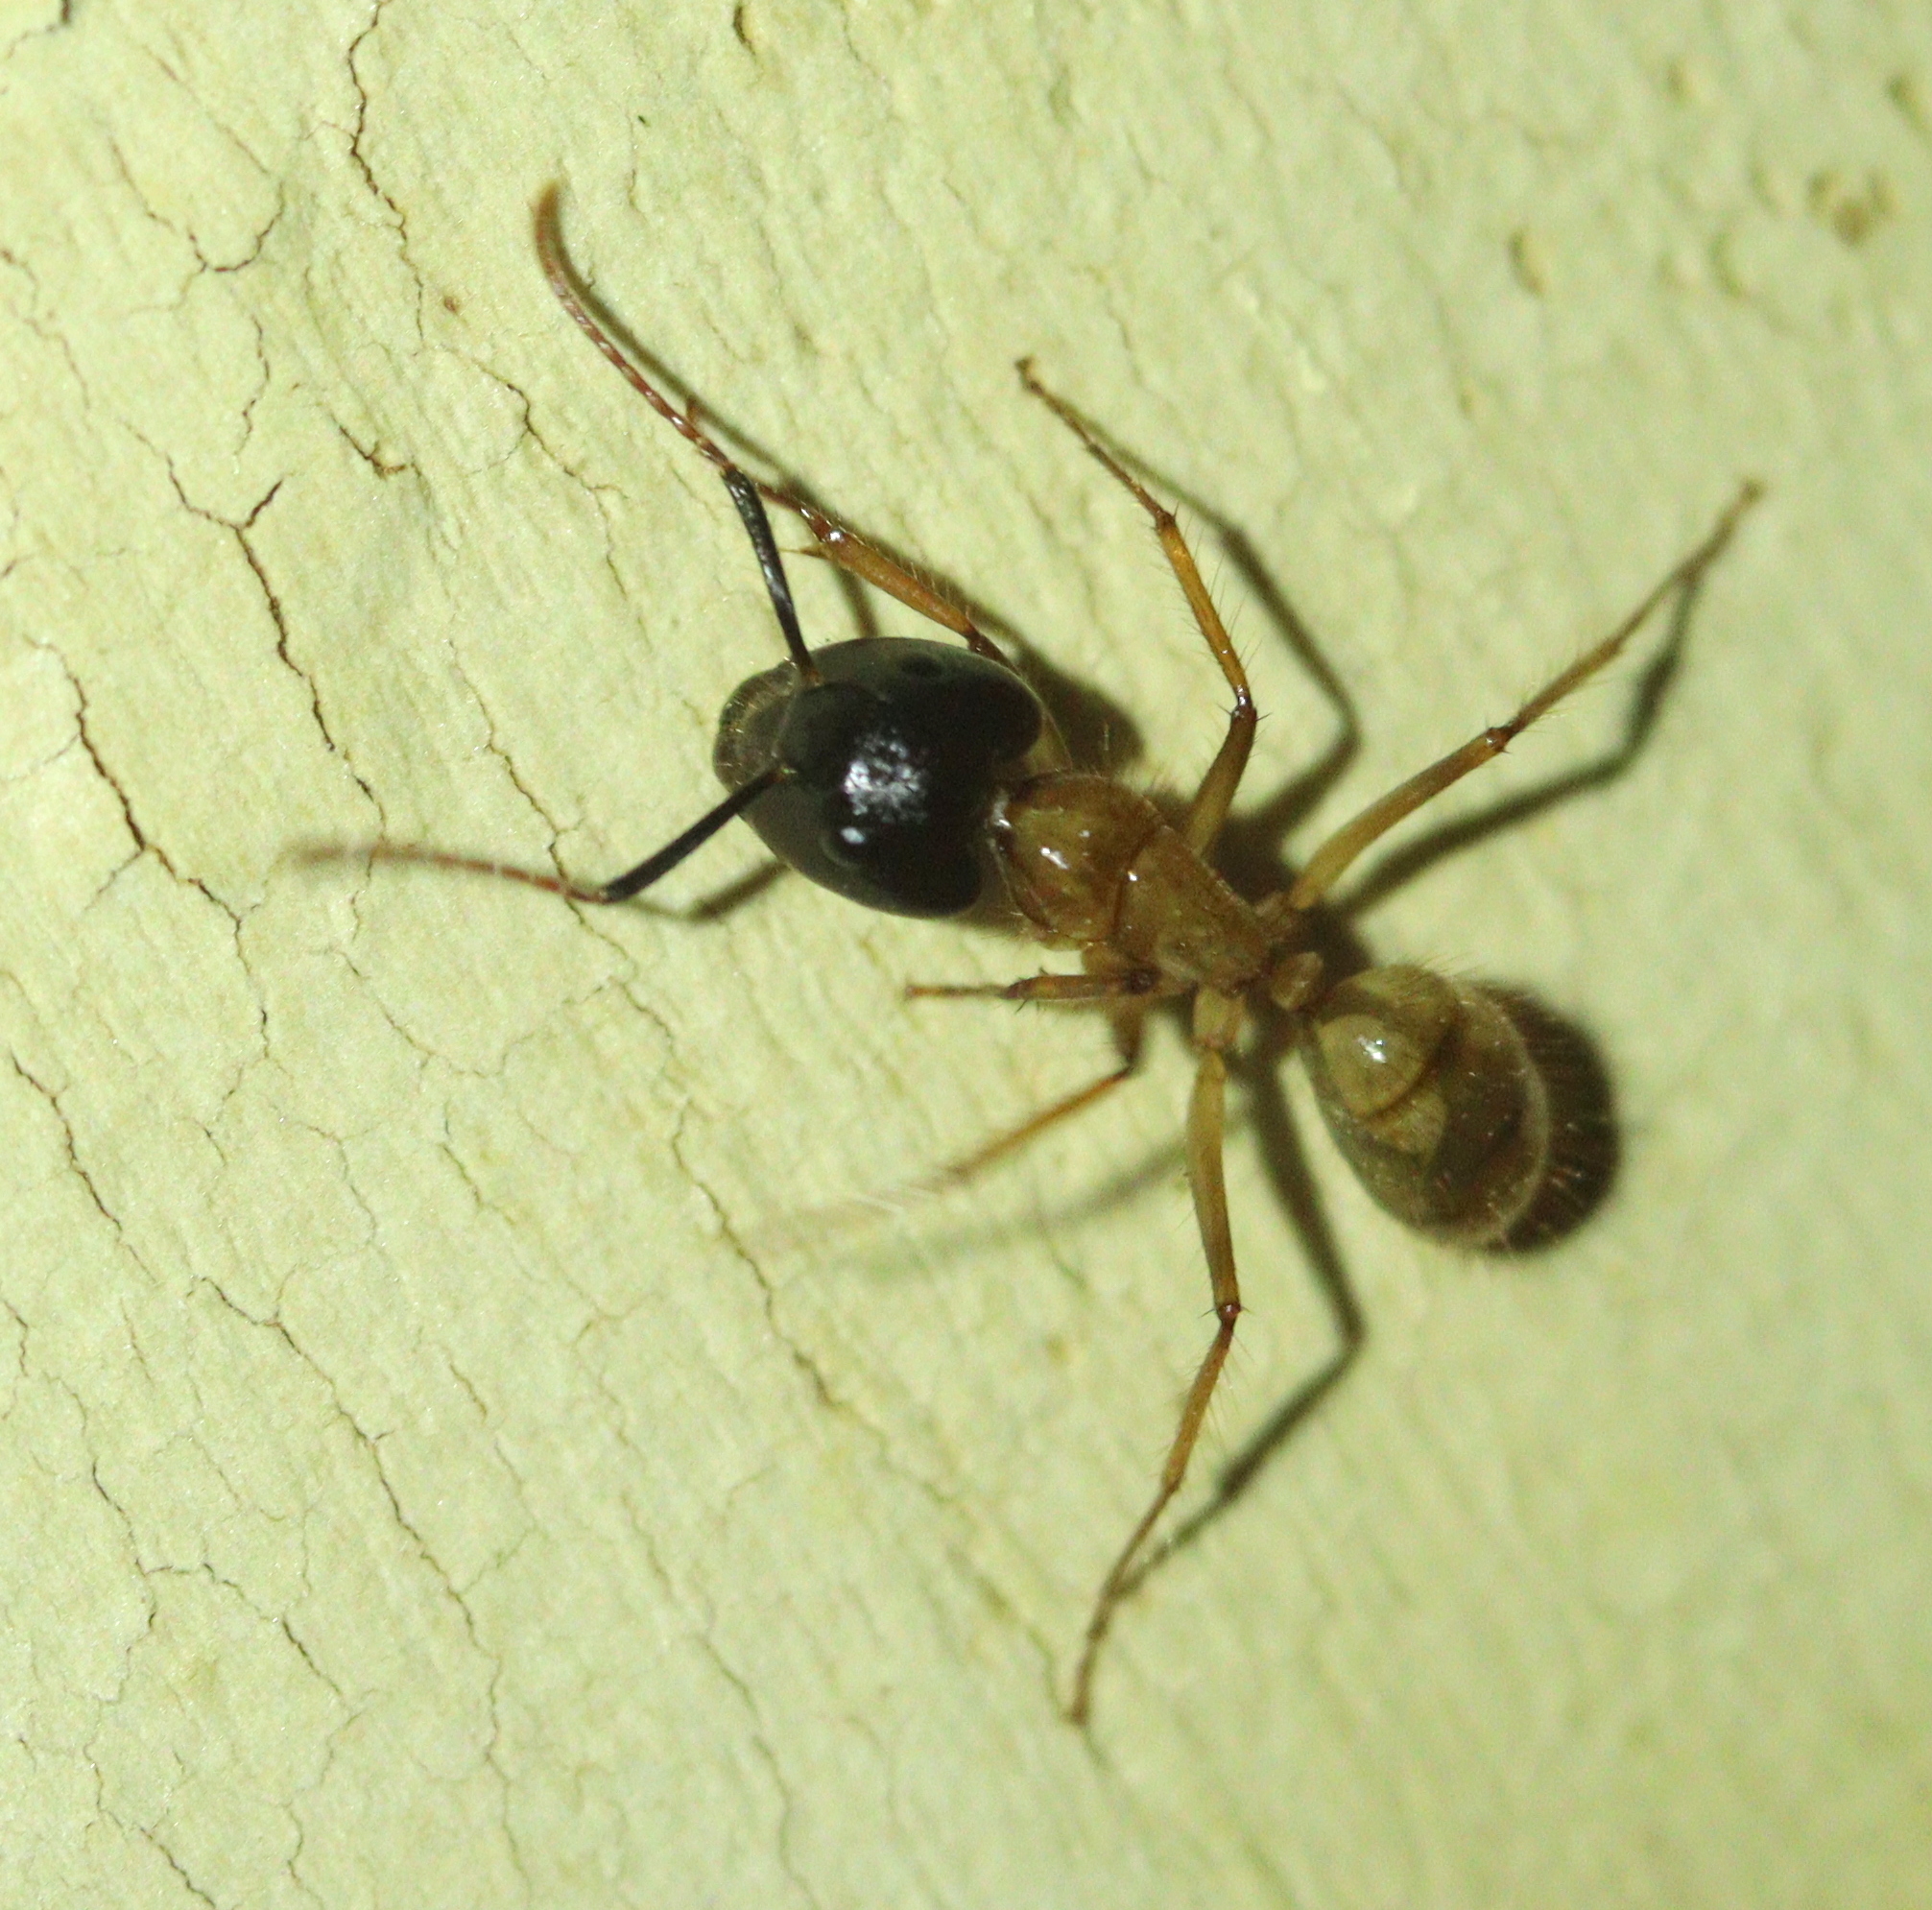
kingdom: Animalia
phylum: Arthropoda
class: Insecta
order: Hymenoptera
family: Formicidae
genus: Camponotus
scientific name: Camponotus atriceps
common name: Florida carpenter ant
